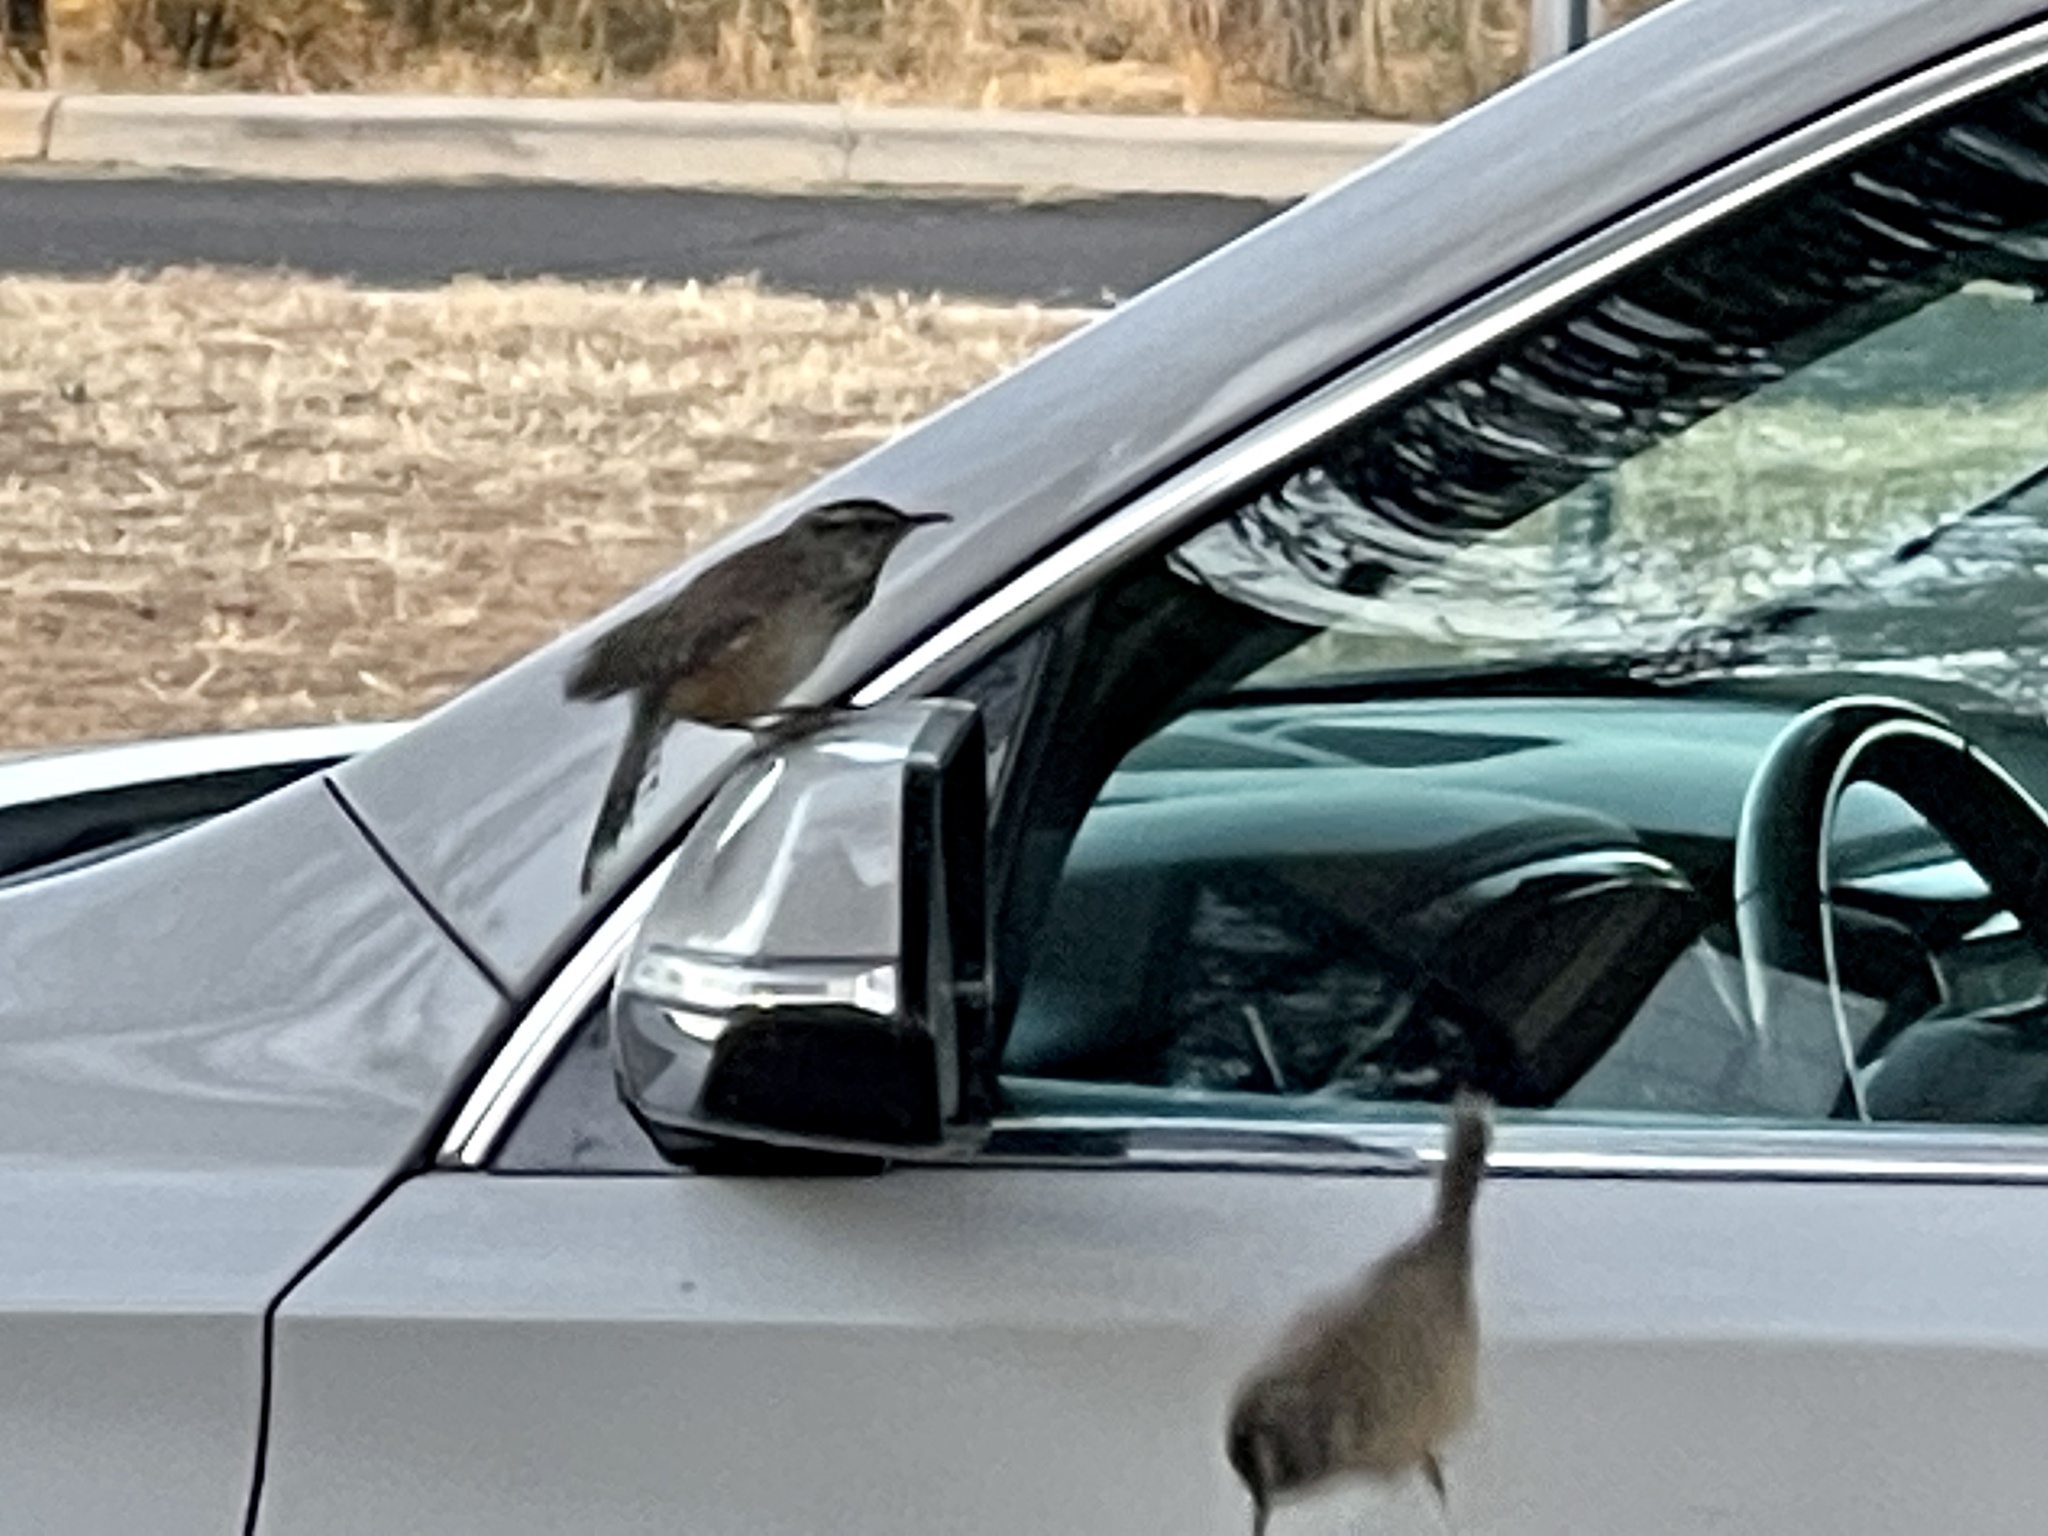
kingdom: Animalia
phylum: Chordata
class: Aves
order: Passeriformes
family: Troglodytidae
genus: Campylorhynchus
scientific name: Campylorhynchus brunneicapillus
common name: Cactus wren
